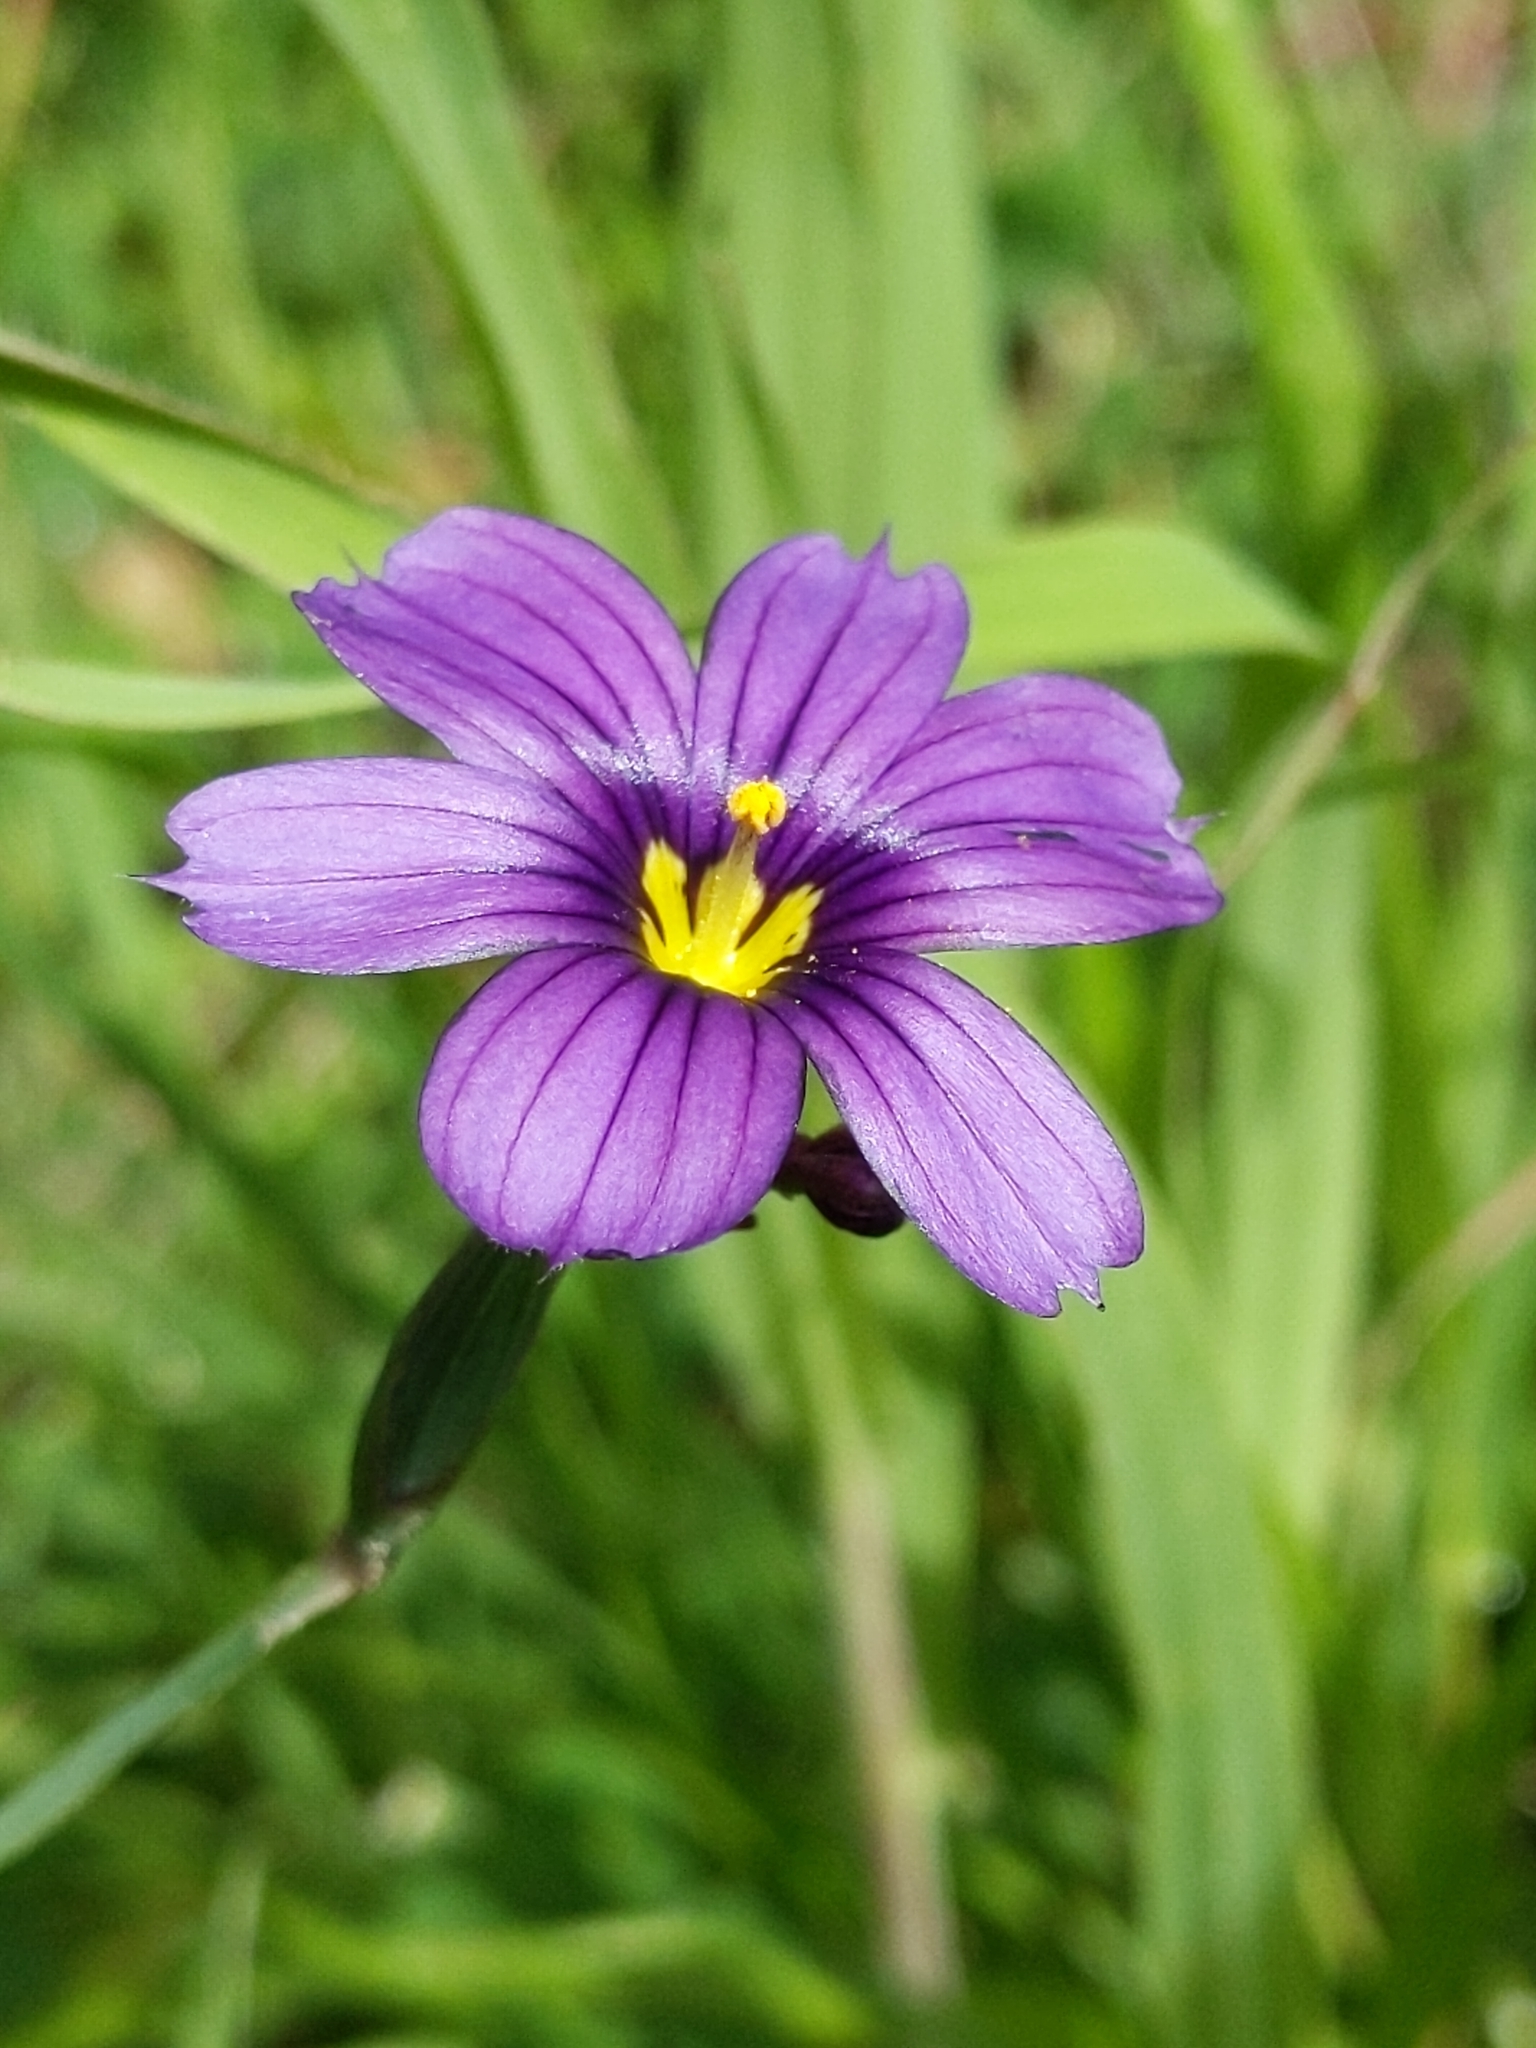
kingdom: Plantae
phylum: Tracheophyta
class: Liliopsida
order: Asparagales
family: Iridaceae
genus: Sisyrinchium
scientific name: Sisyrinchium bellum
